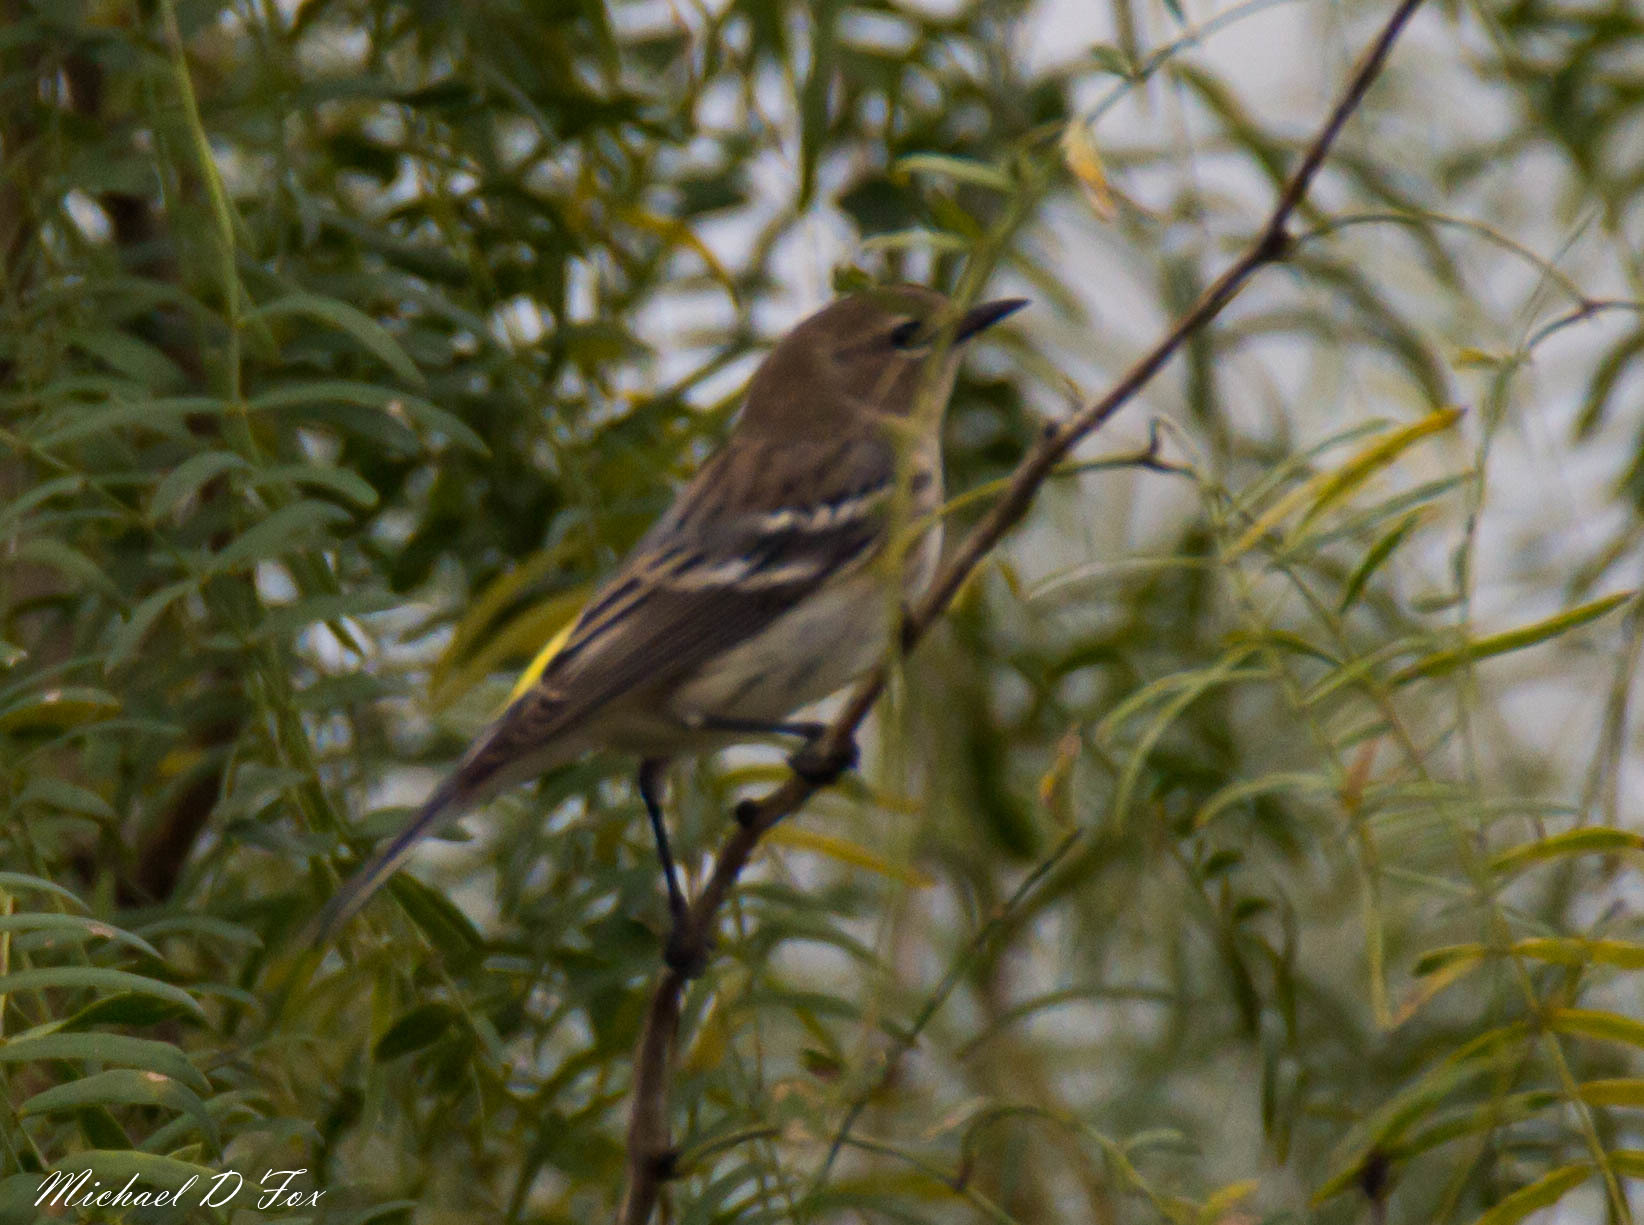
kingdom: Animalia
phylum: Chordata
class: Aves
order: Passeriformes
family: Parulidae
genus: Setophaga
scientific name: Setophaga coronata
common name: Myrtle warbler
